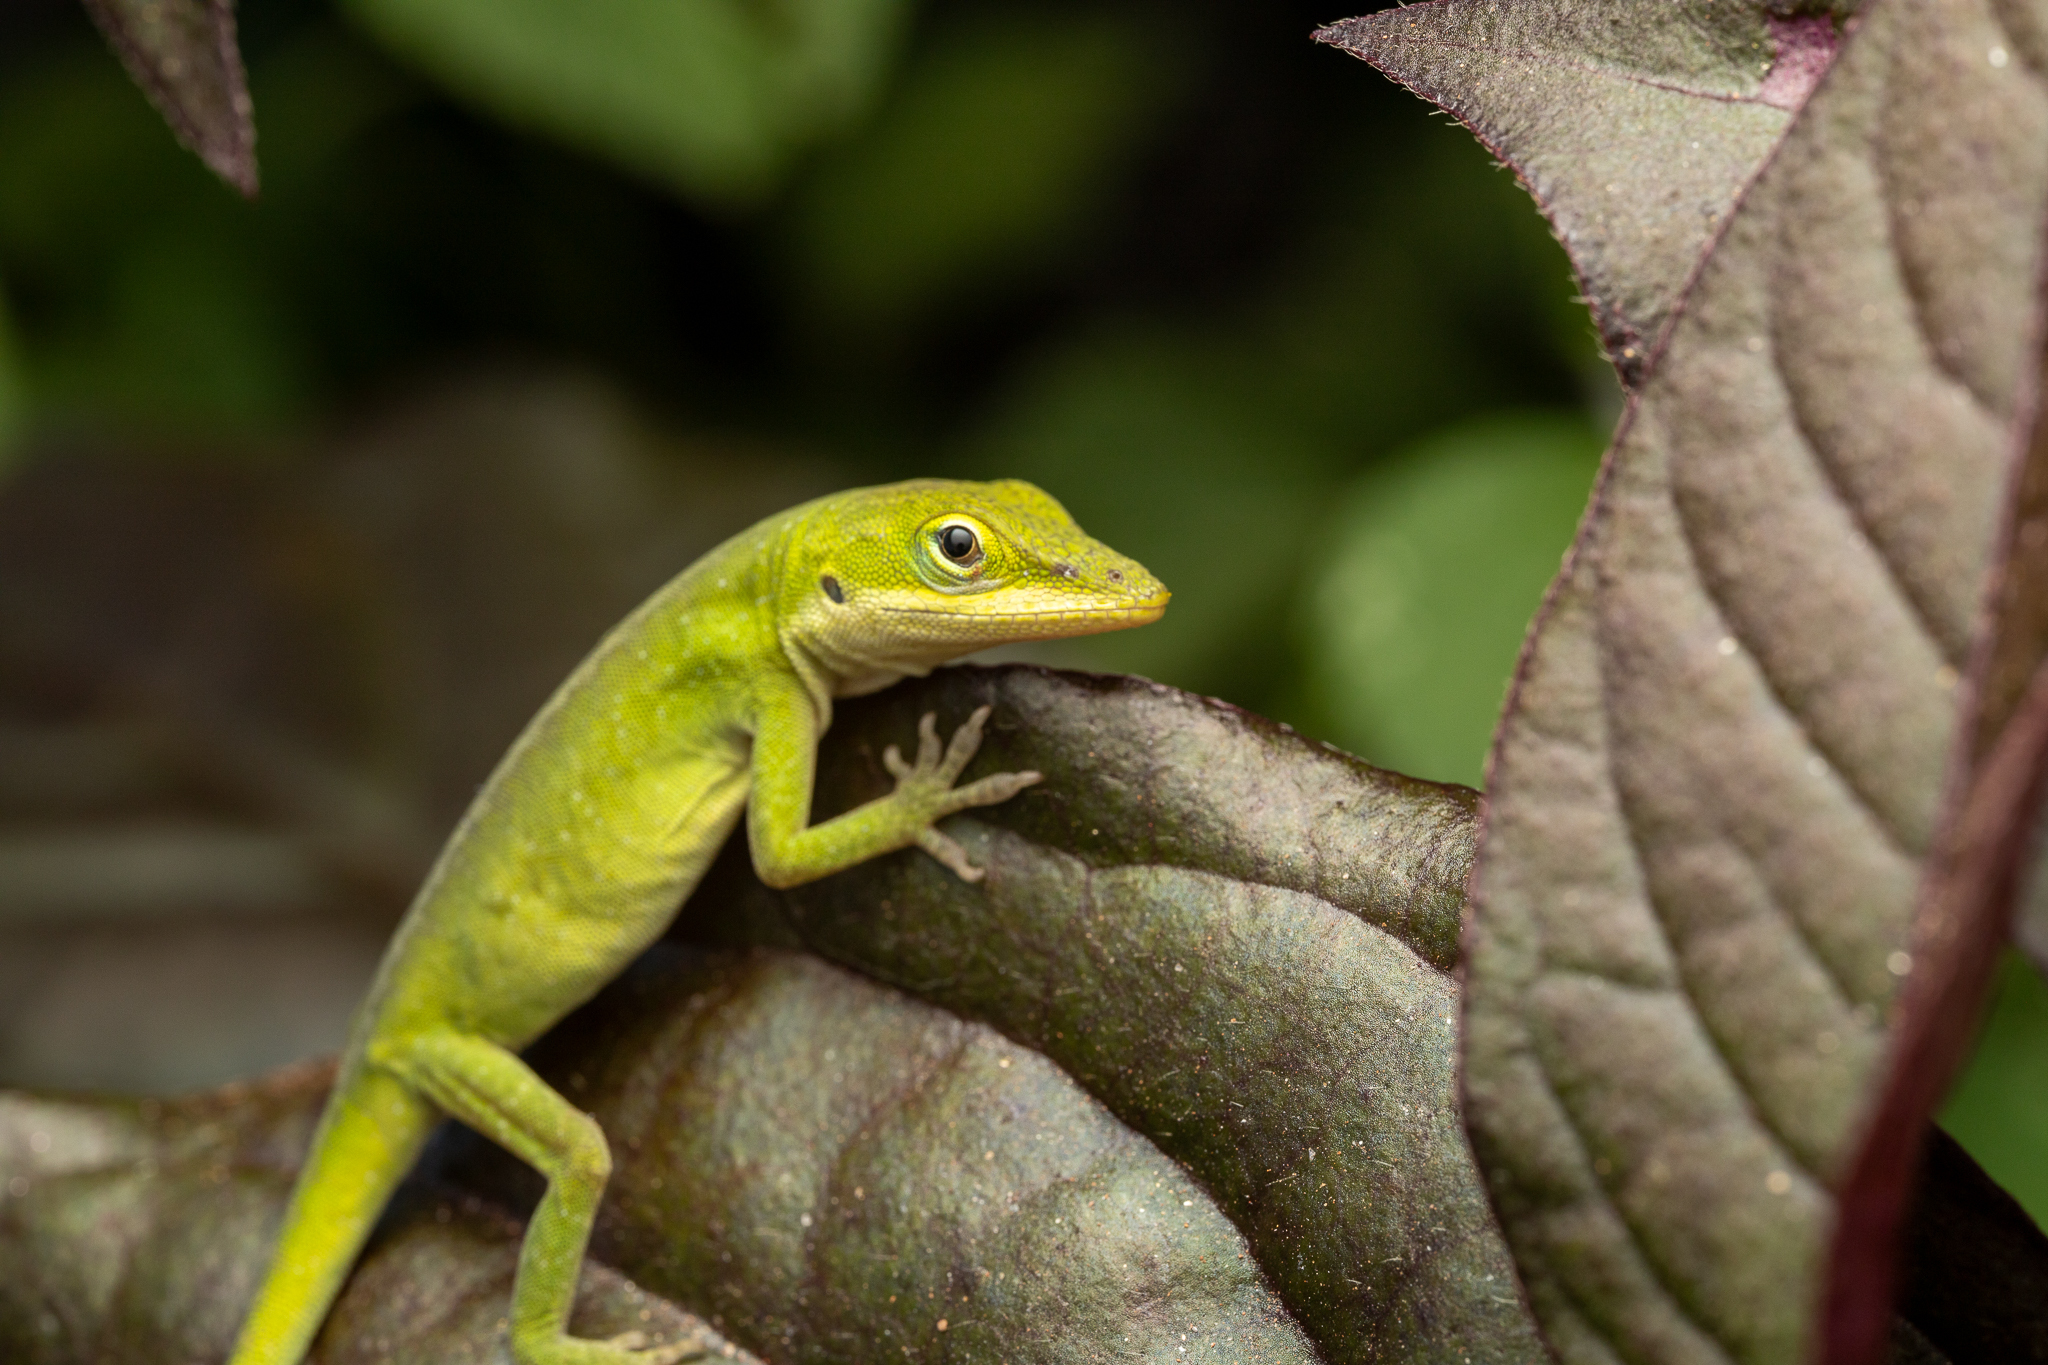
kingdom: Animalia
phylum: Chordata
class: Squamata
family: Dactyloidae
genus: Anolis
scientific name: Anolis carolinensis
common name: Green anole
